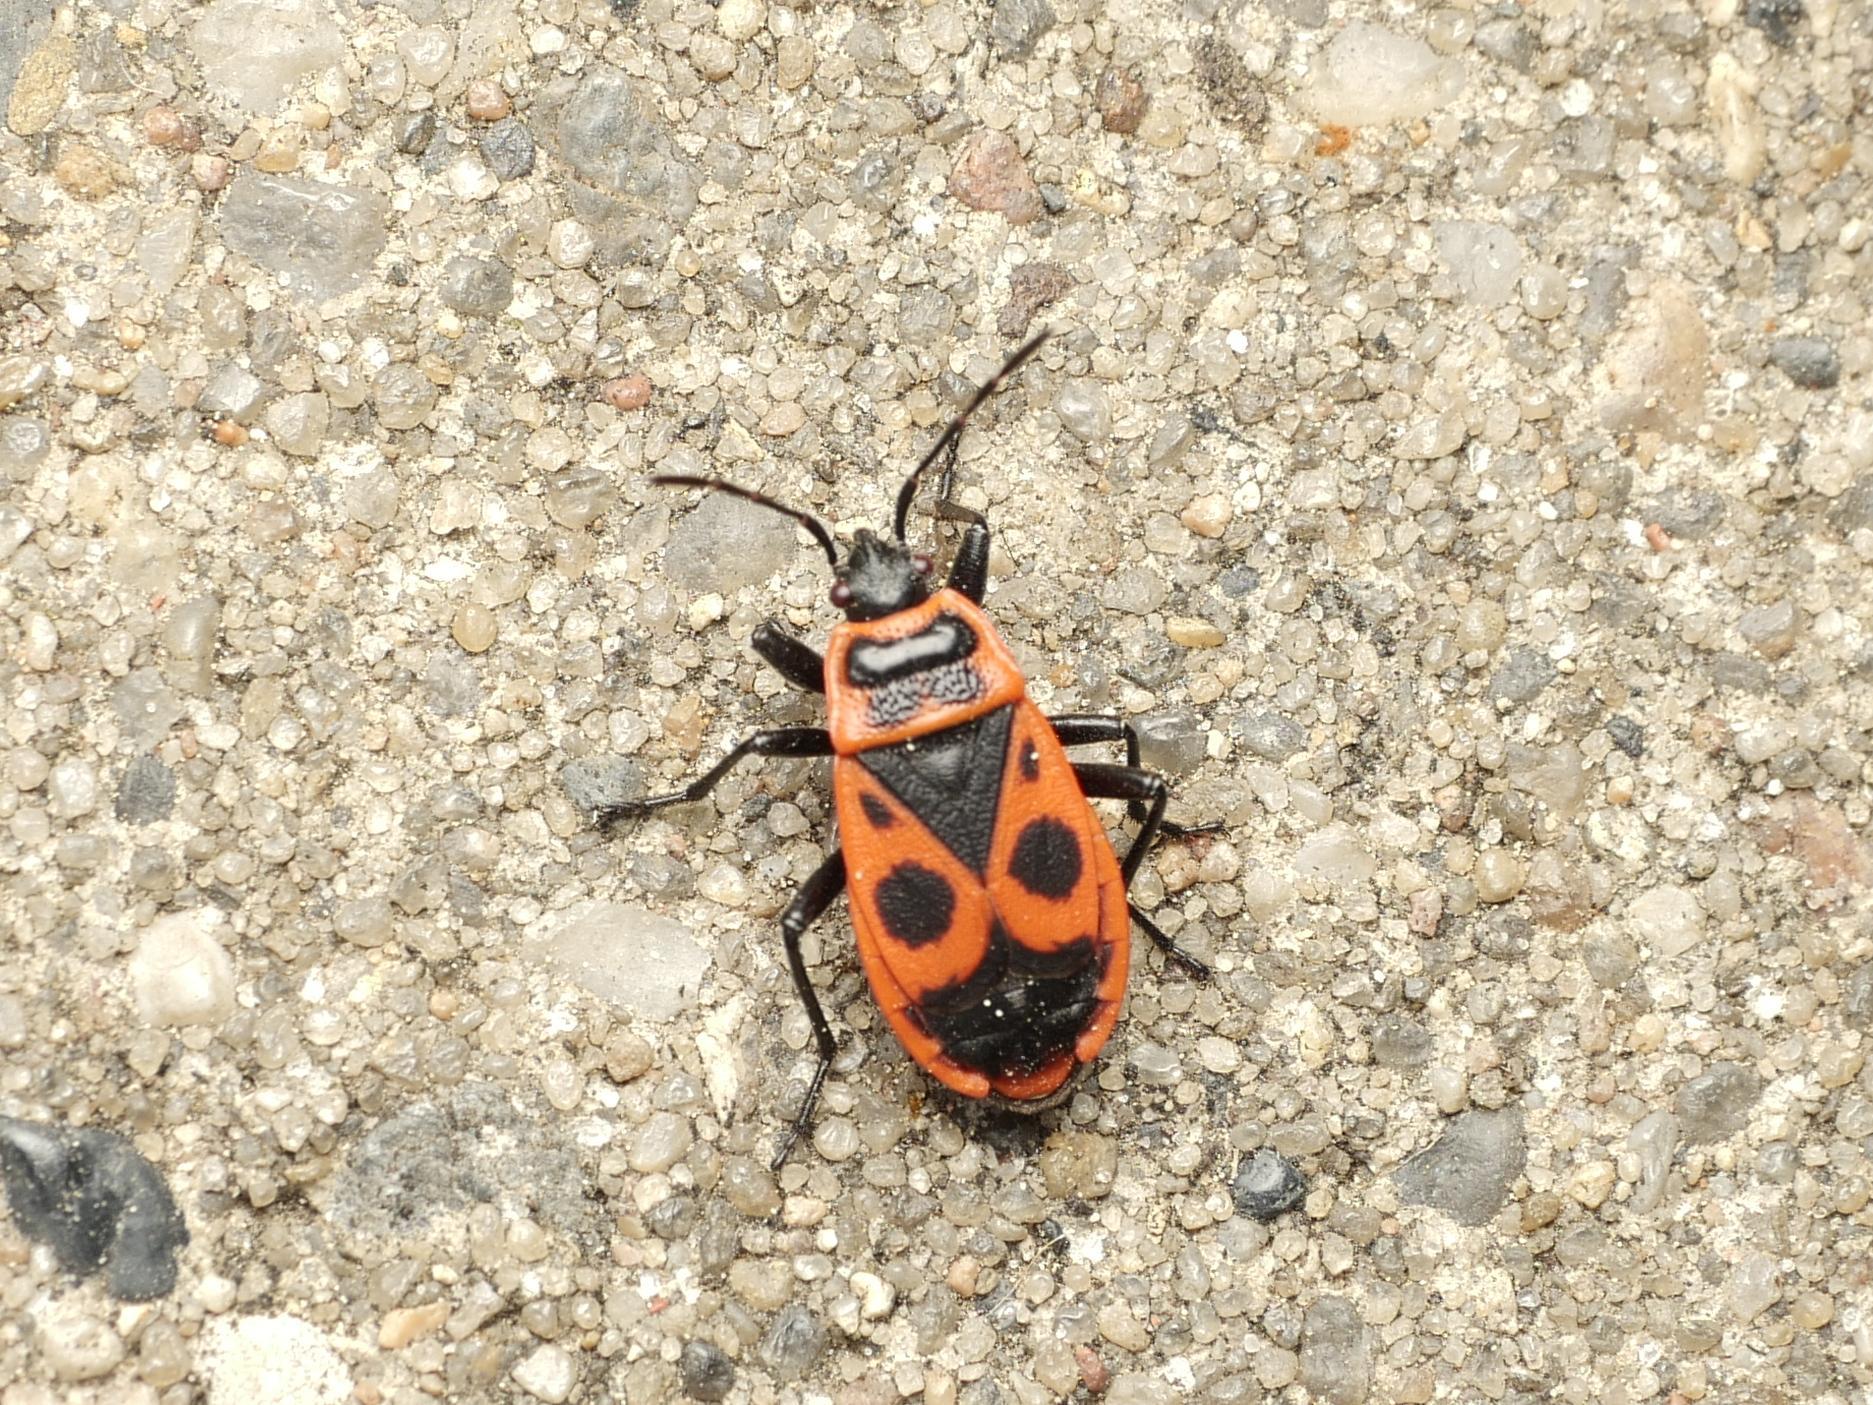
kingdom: Animalia
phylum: Arthropoda
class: Insecta
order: Hemiptera
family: Pyrrhocoridae
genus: Pyrrhocoris
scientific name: Pyrrhocoris apterus
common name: Firebug
